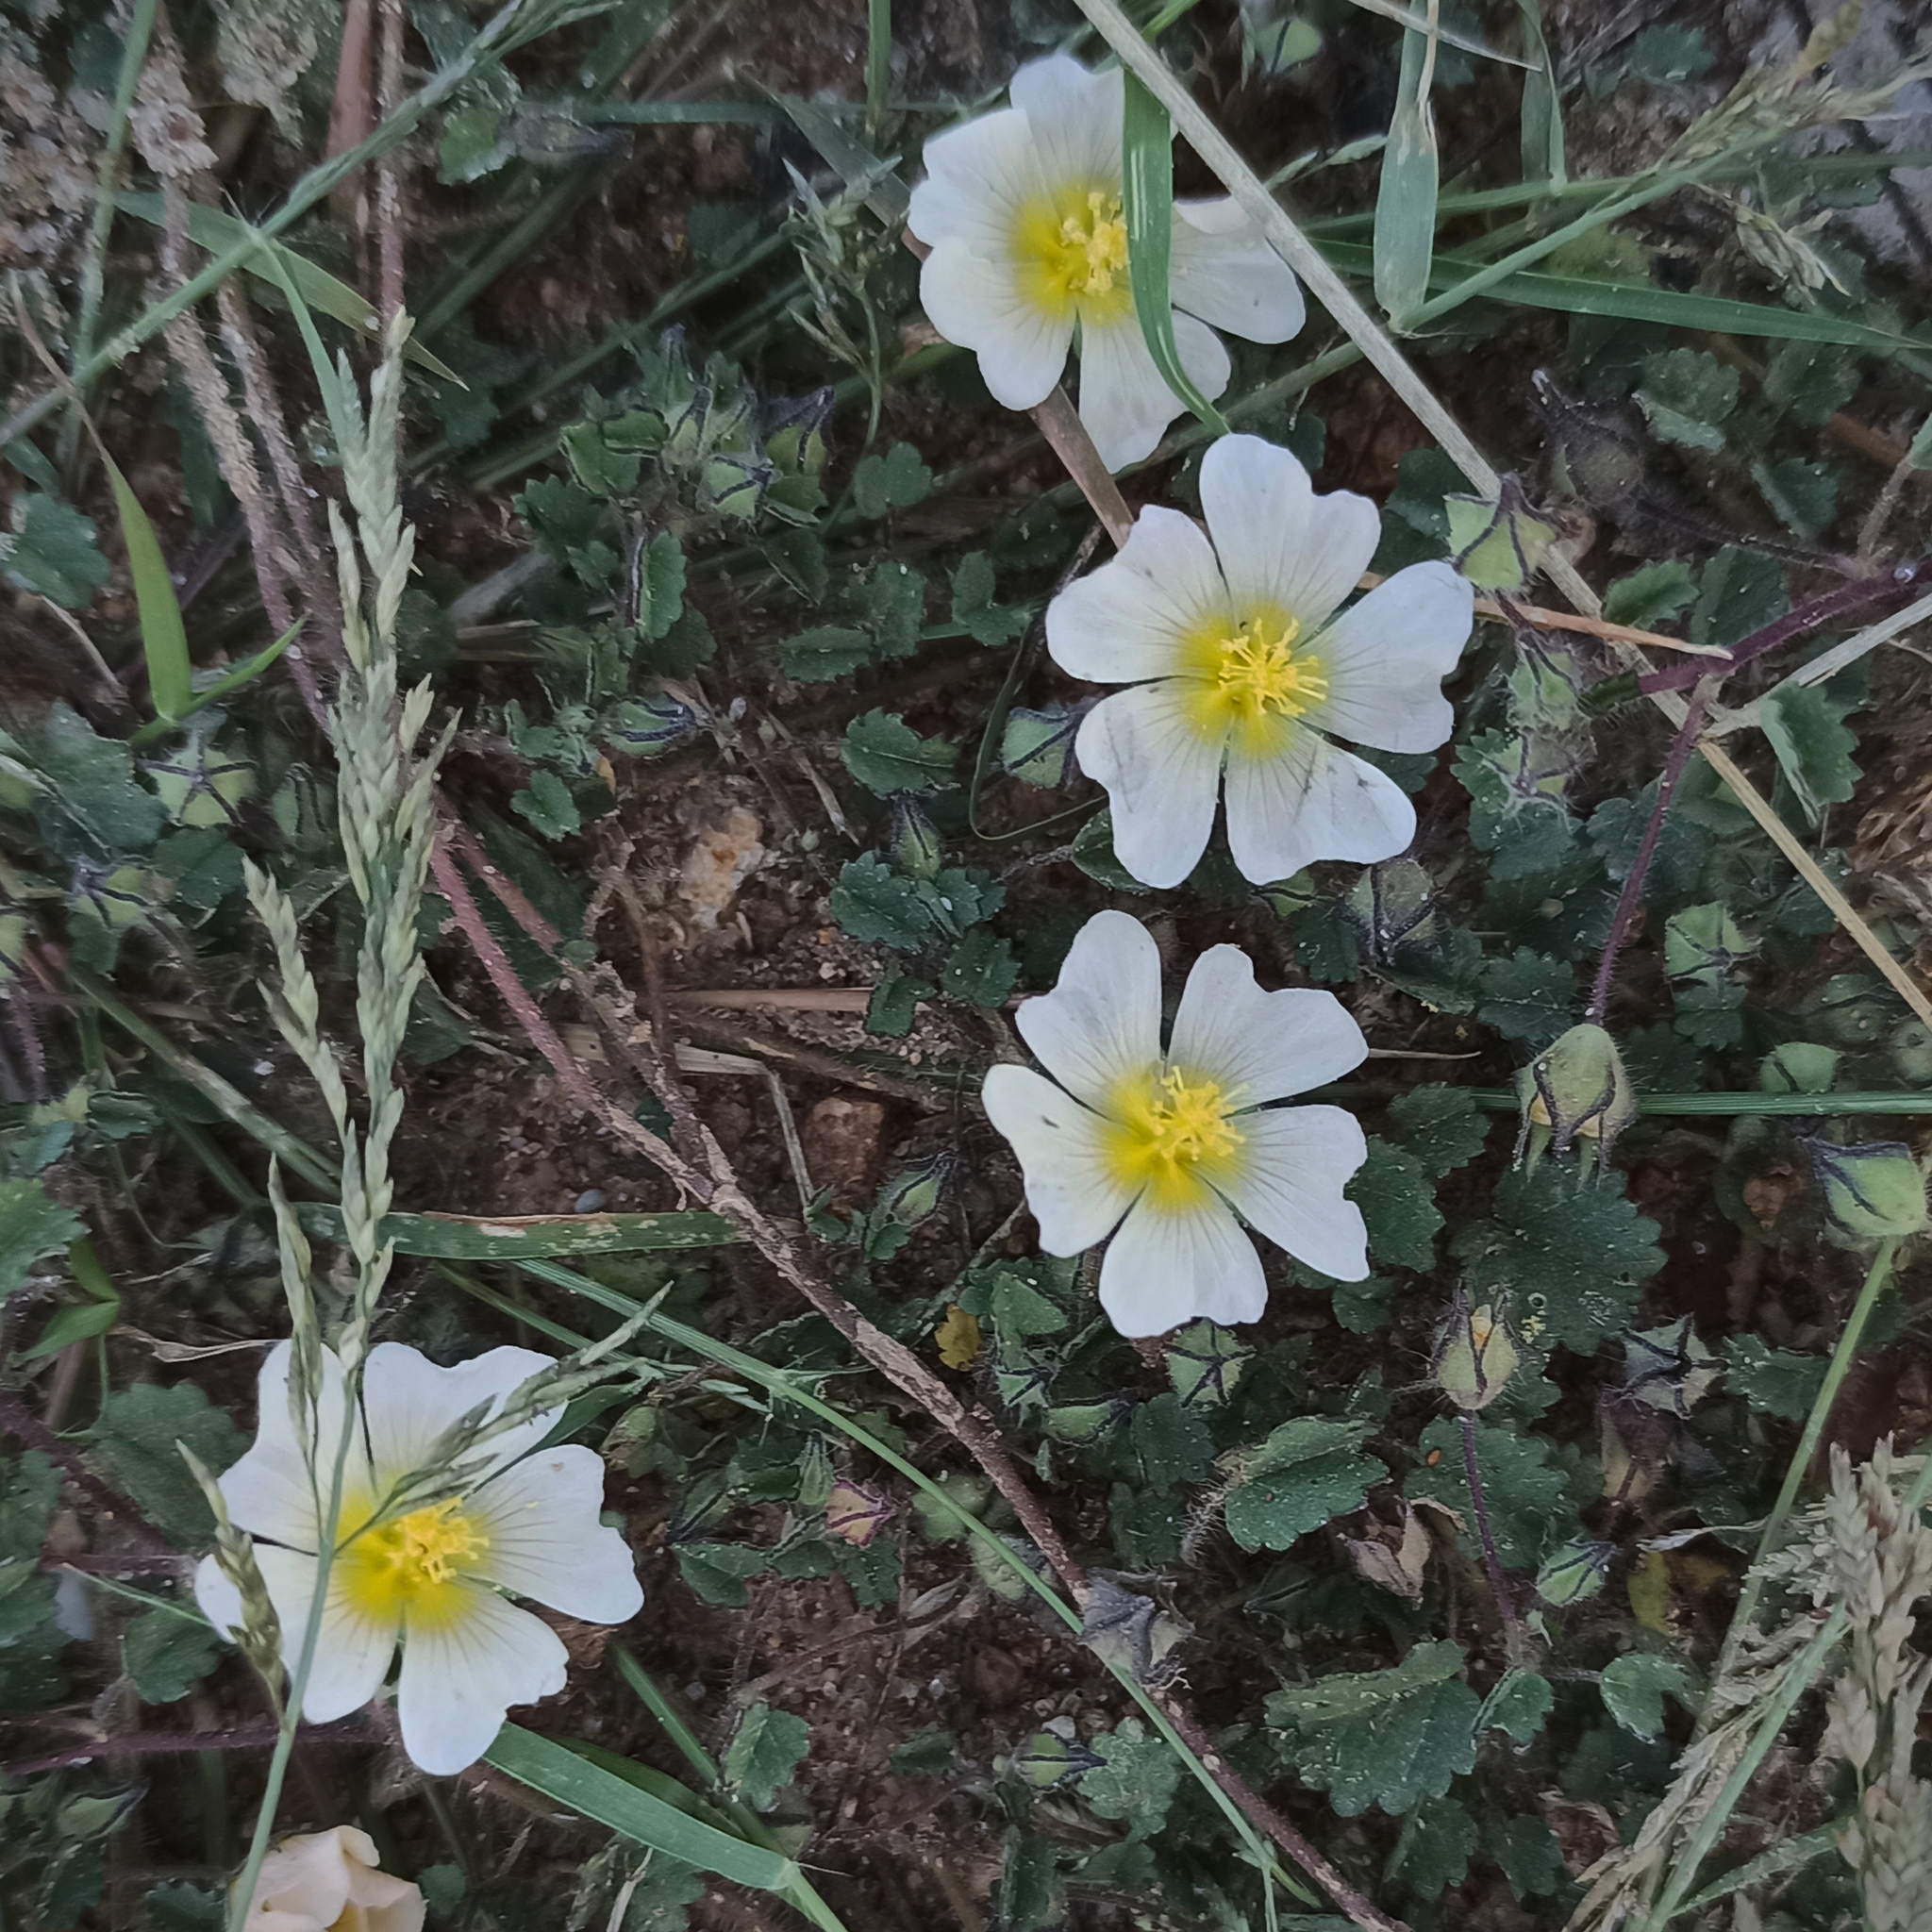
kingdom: Plantae
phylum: Tracheophyta
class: Magnoliopsida
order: Malvales
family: Malvaceae
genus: Sida
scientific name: Sida abutilifolia
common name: Spreading fanpetals
